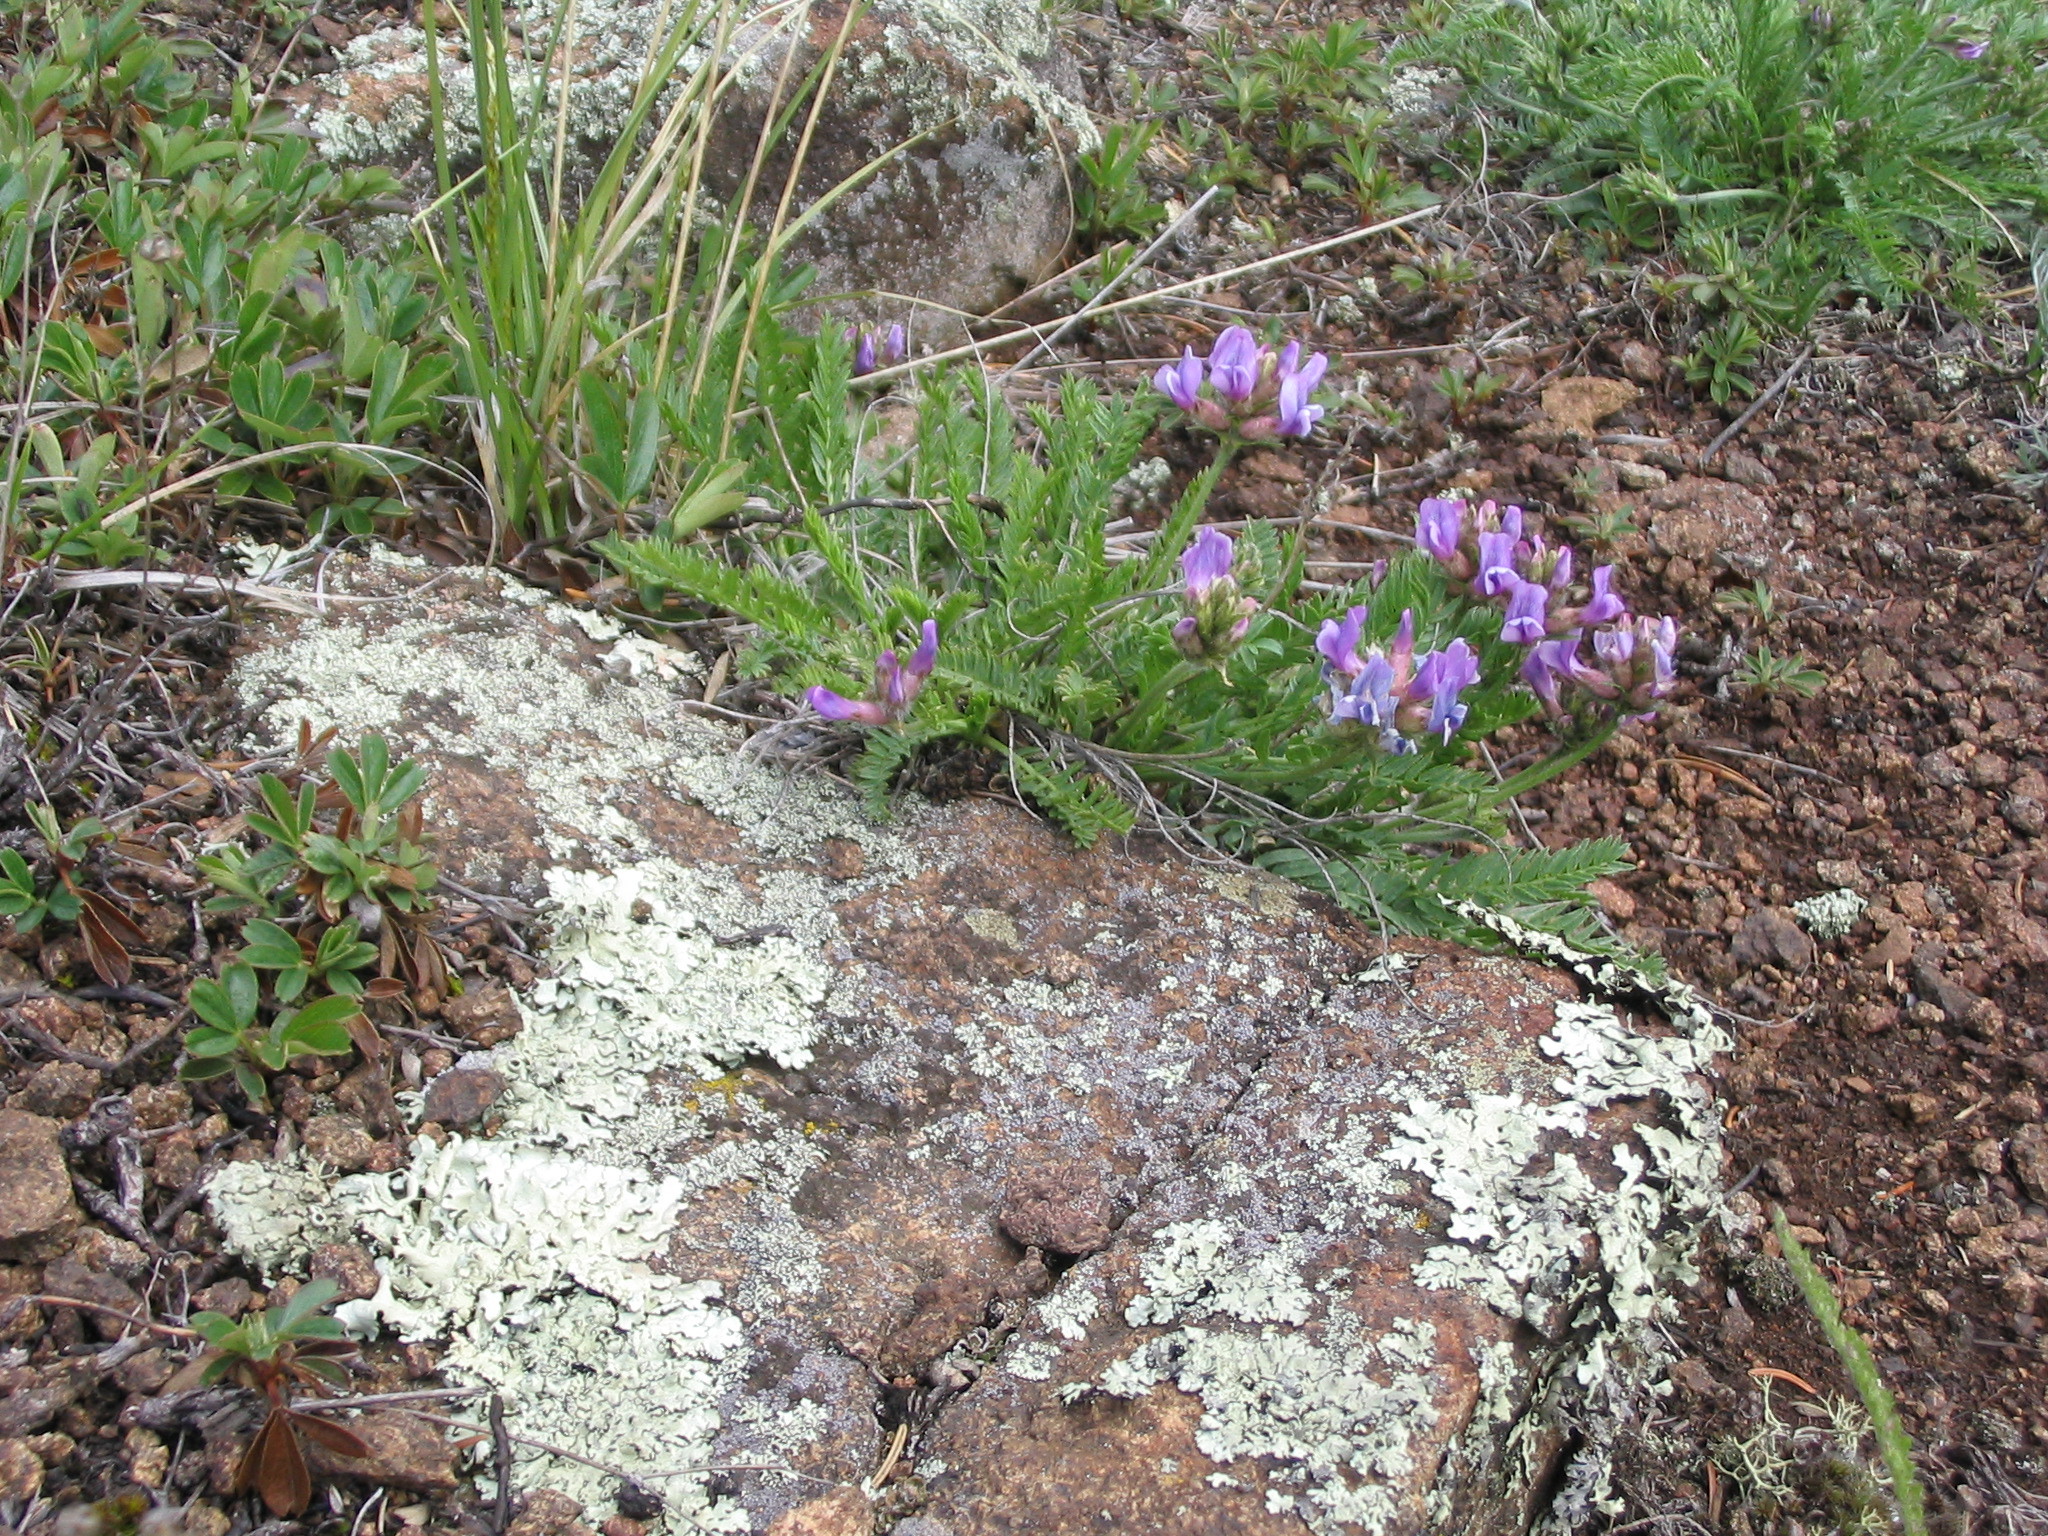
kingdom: Plantae
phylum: Tracheophyta
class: Magnoliopsida
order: Fabales
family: Fabaceae
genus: Oxytropis
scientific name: Oxytropis borealis
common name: Boreal locoweed
